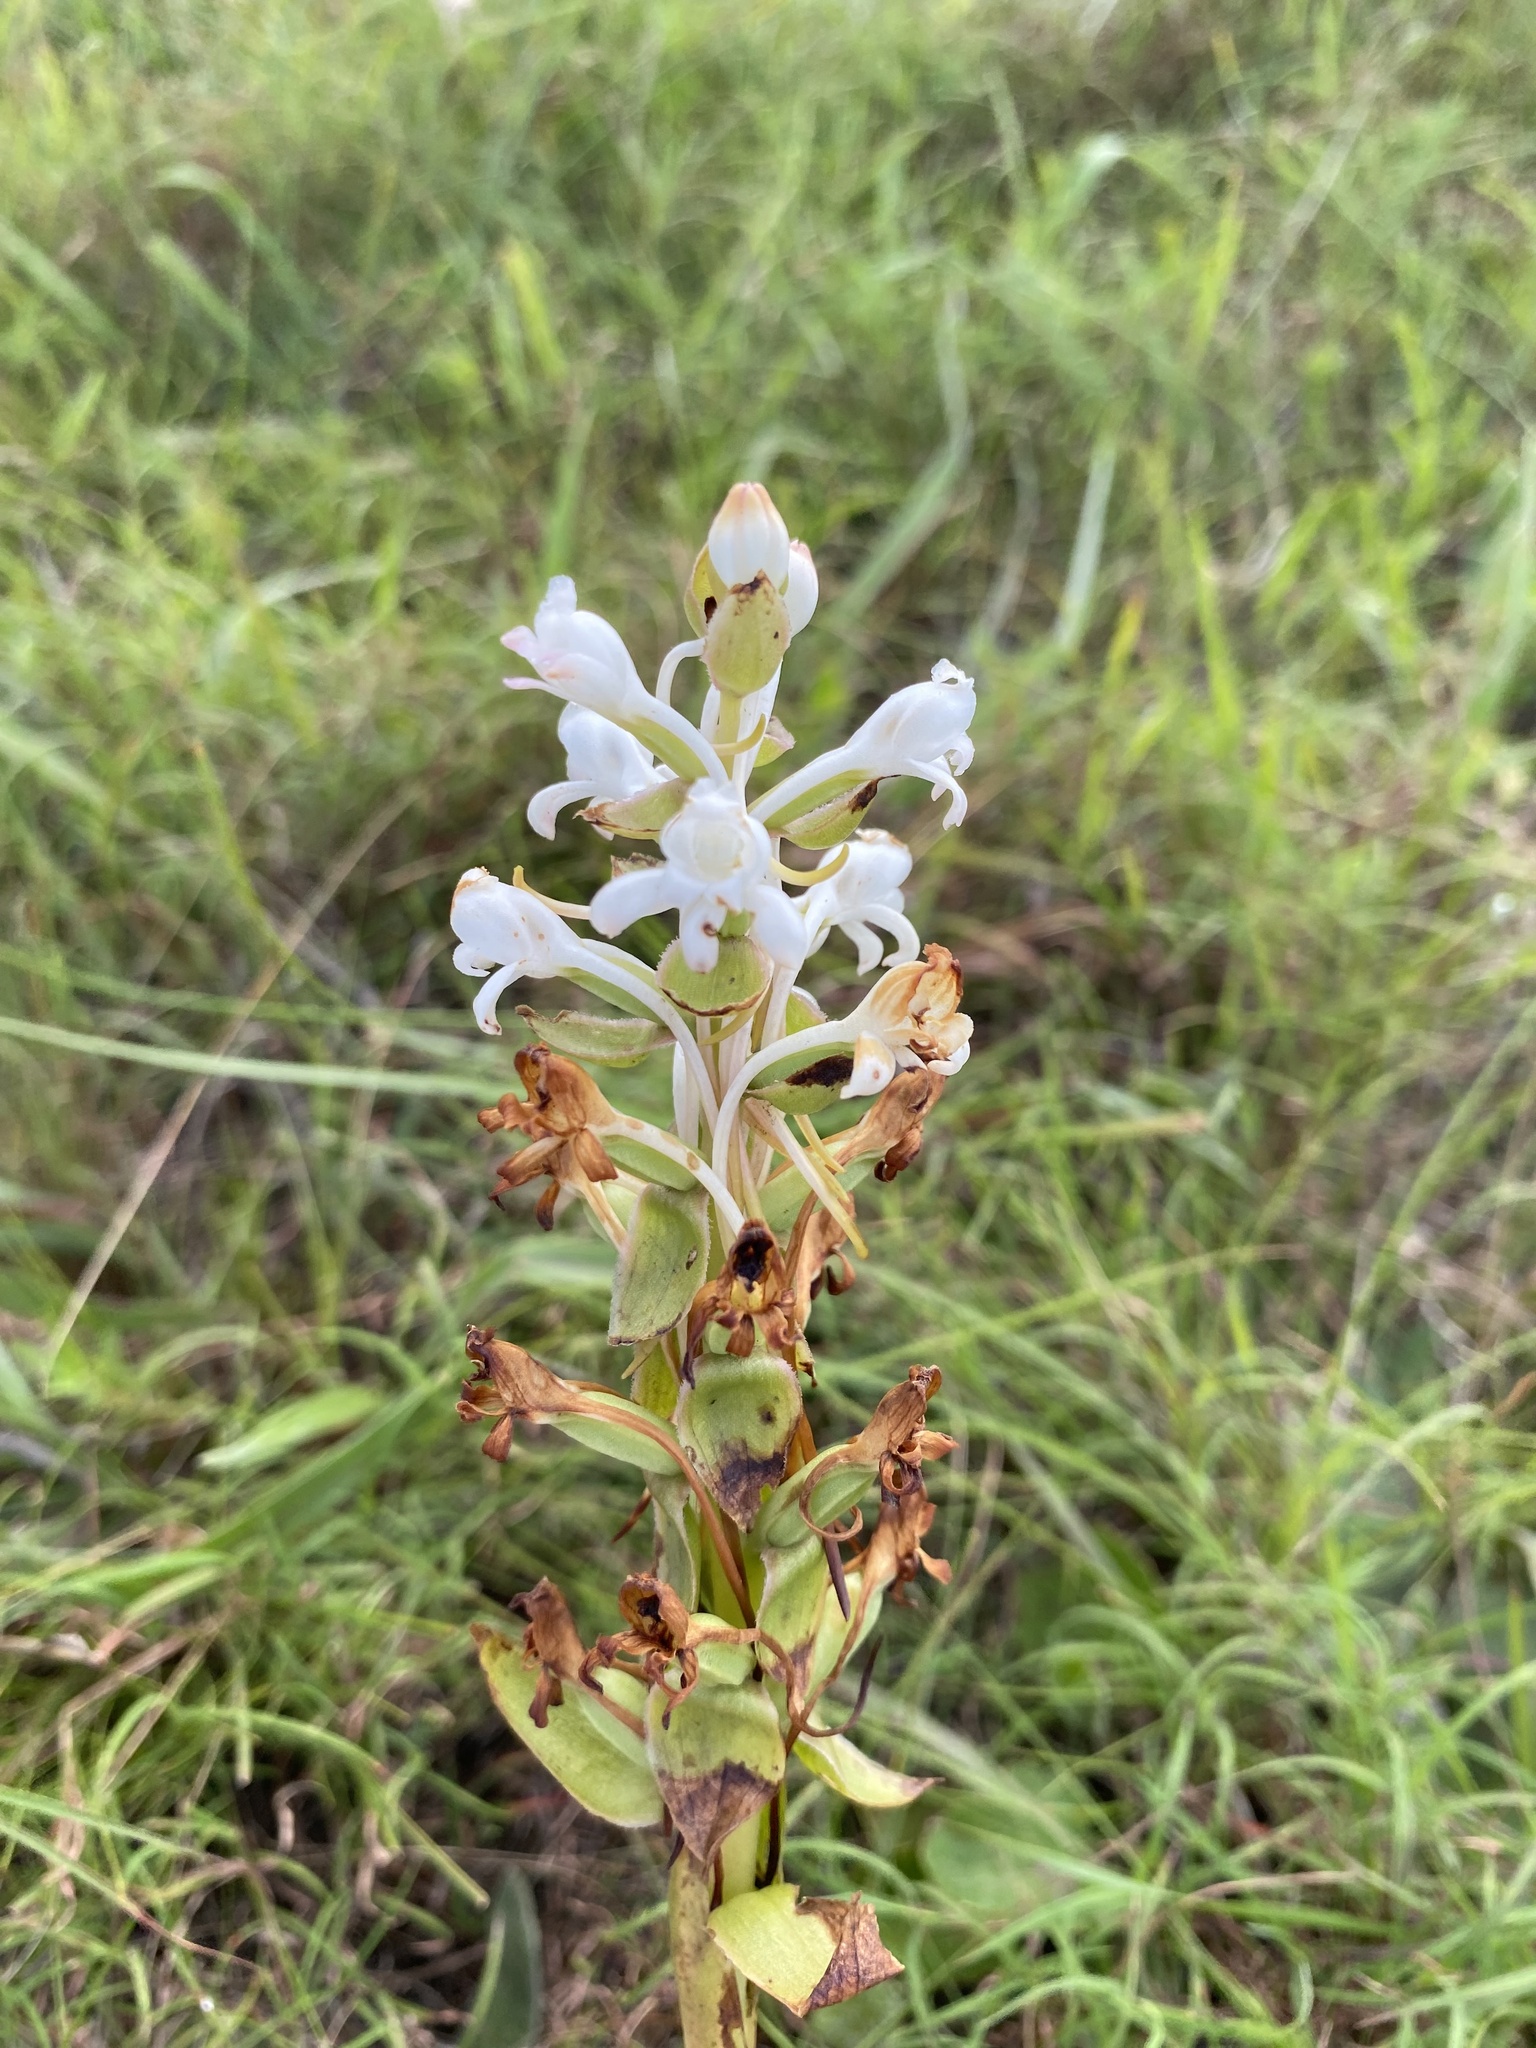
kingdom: Plantae
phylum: Tracheophyta
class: Liliopsida
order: Asparagales
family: Orchidaceae
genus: Satyrium
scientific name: Satyrium longicauda
